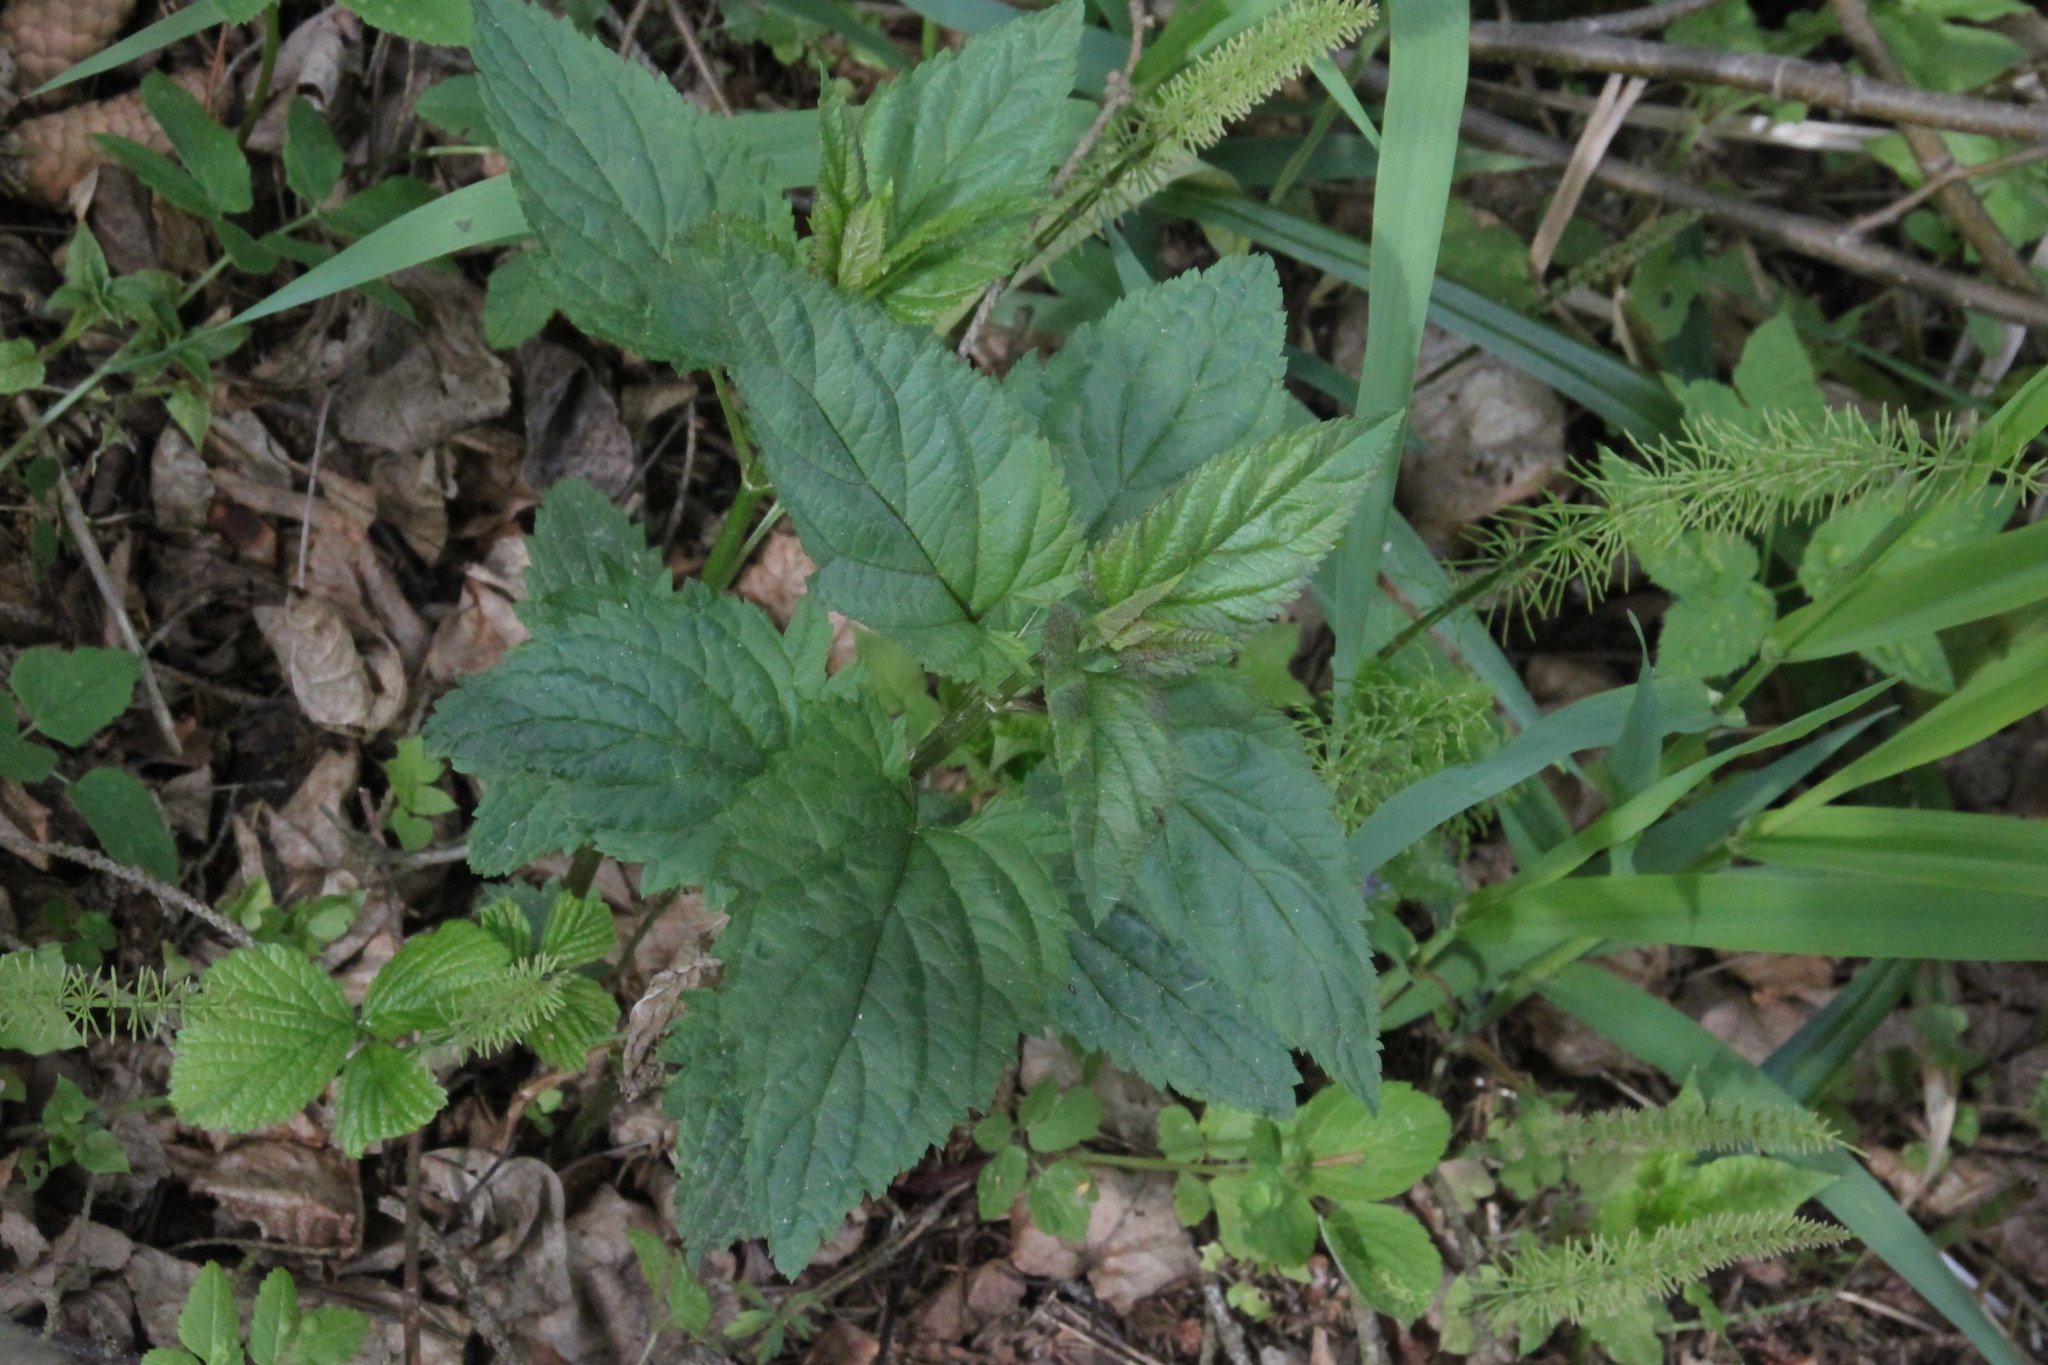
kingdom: Plantae
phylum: Tracheophyta
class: Magnoliopsida
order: Lamiales
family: Scrophulariaceae
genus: Scrophularia
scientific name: Scrophularia nodosa
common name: Common figwort
